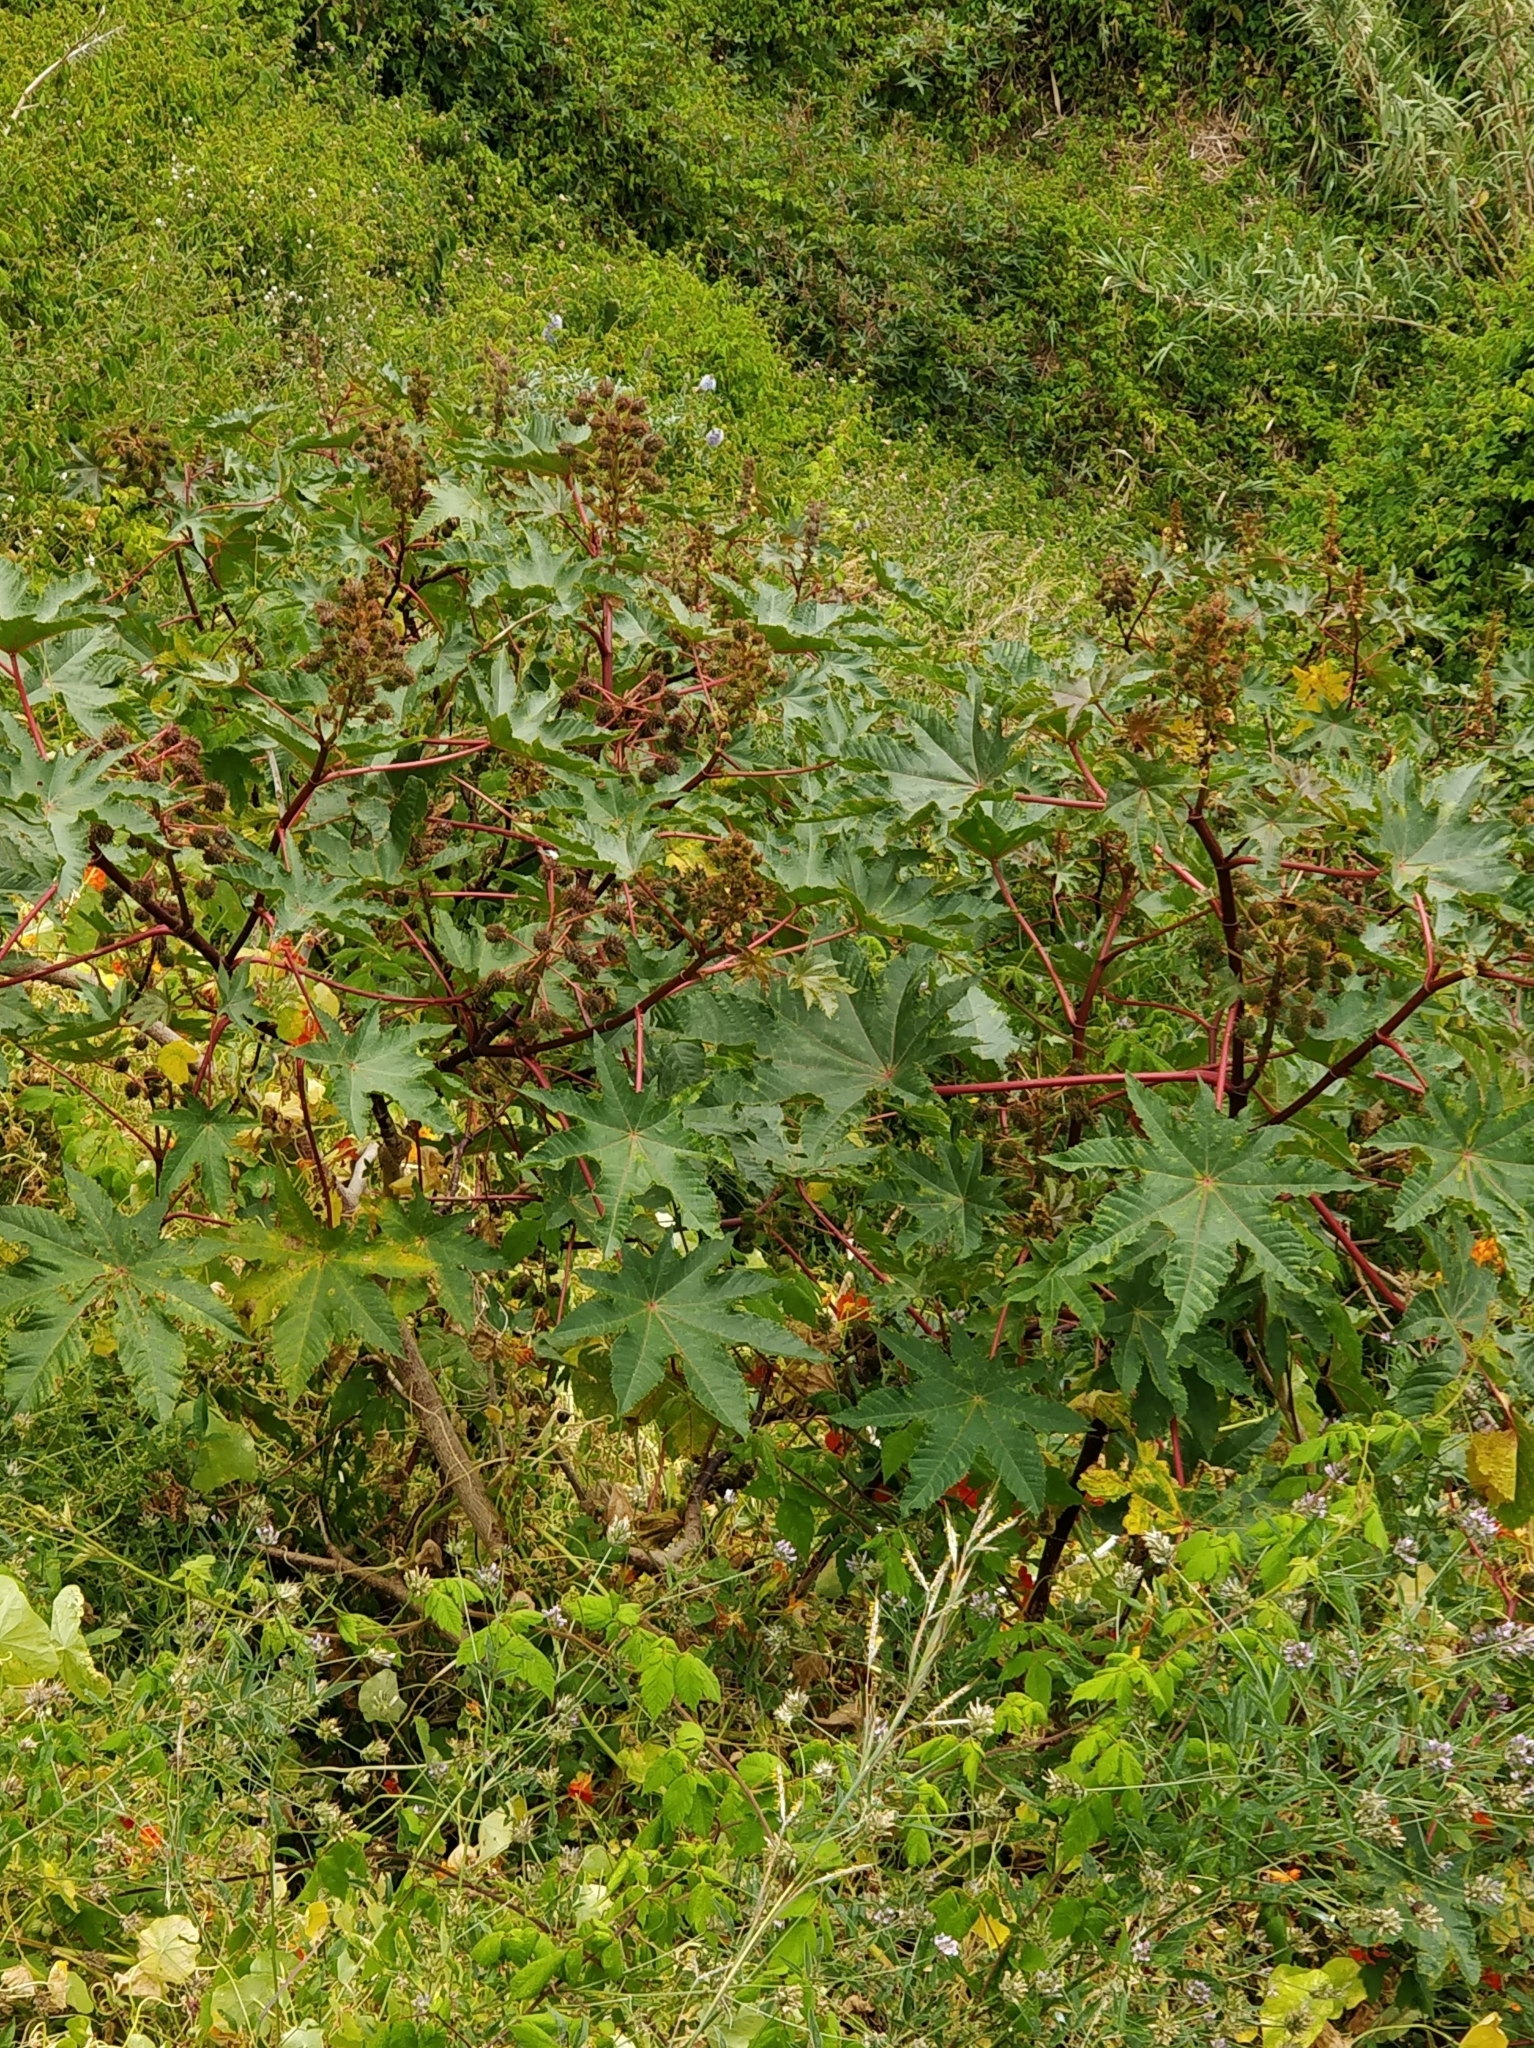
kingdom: Plantae
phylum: Tracheophyta
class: Magnoliopsida
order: Malpighiales
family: Euphorbiaceae
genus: Ricinus
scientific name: Ricinus communis
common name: Castor-oil-plant
